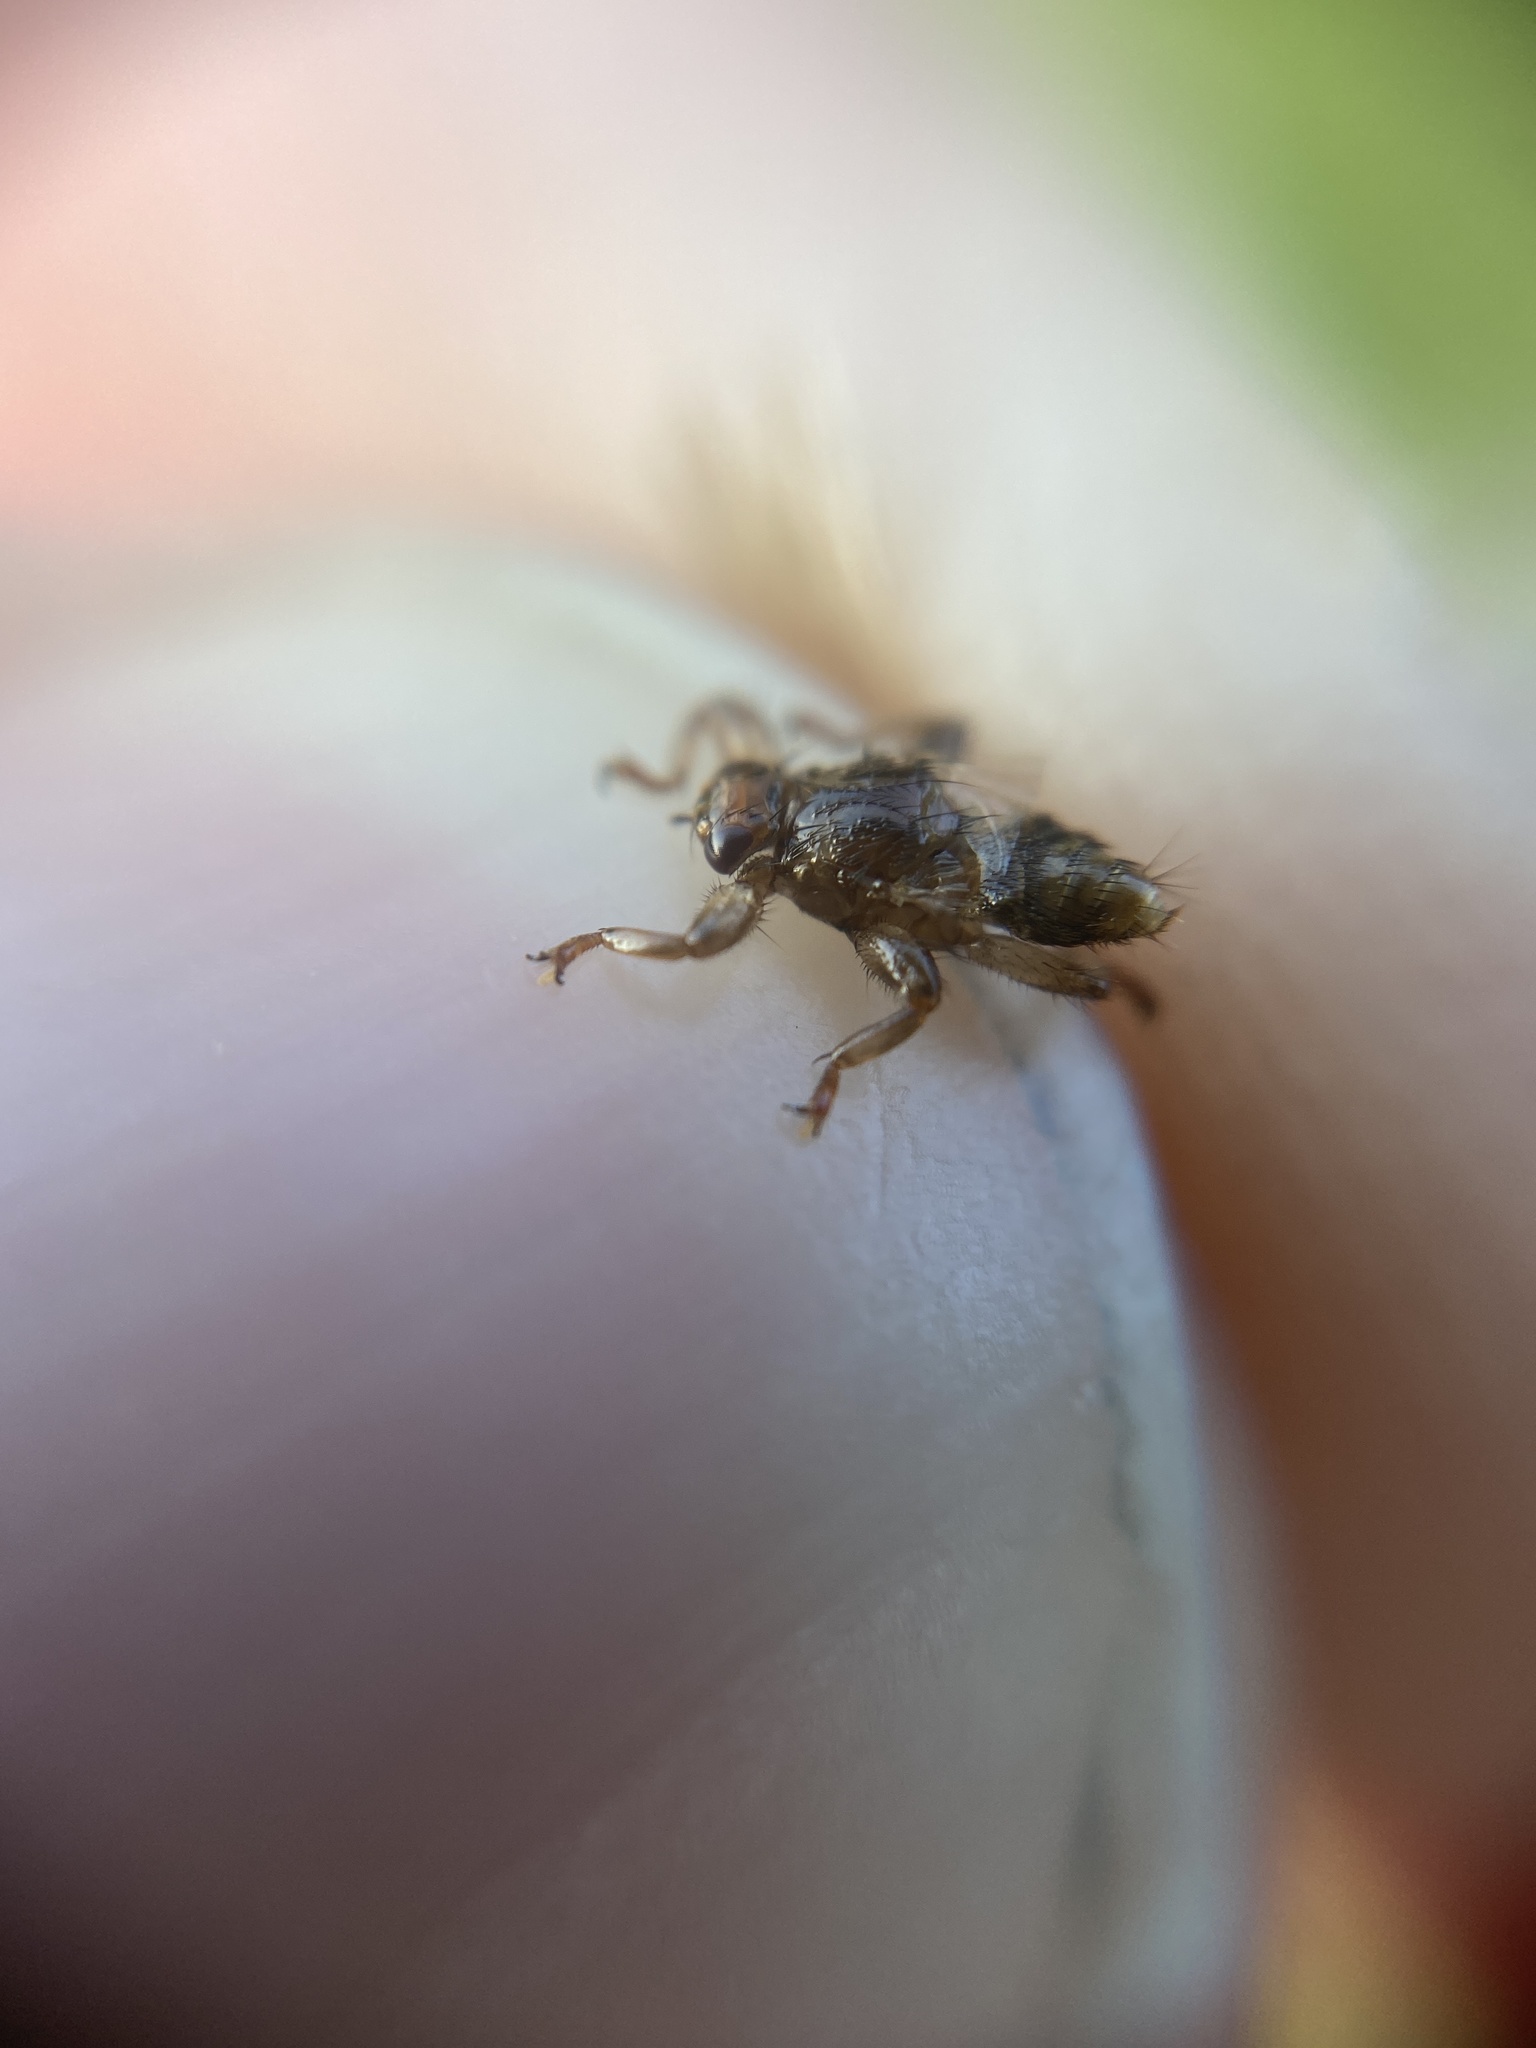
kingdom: Animalia
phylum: Arthropoda
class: Insecta
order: Diptera
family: Hippoboscidae
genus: Lipoptena
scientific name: Lipoptena cervi
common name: Deer ked
